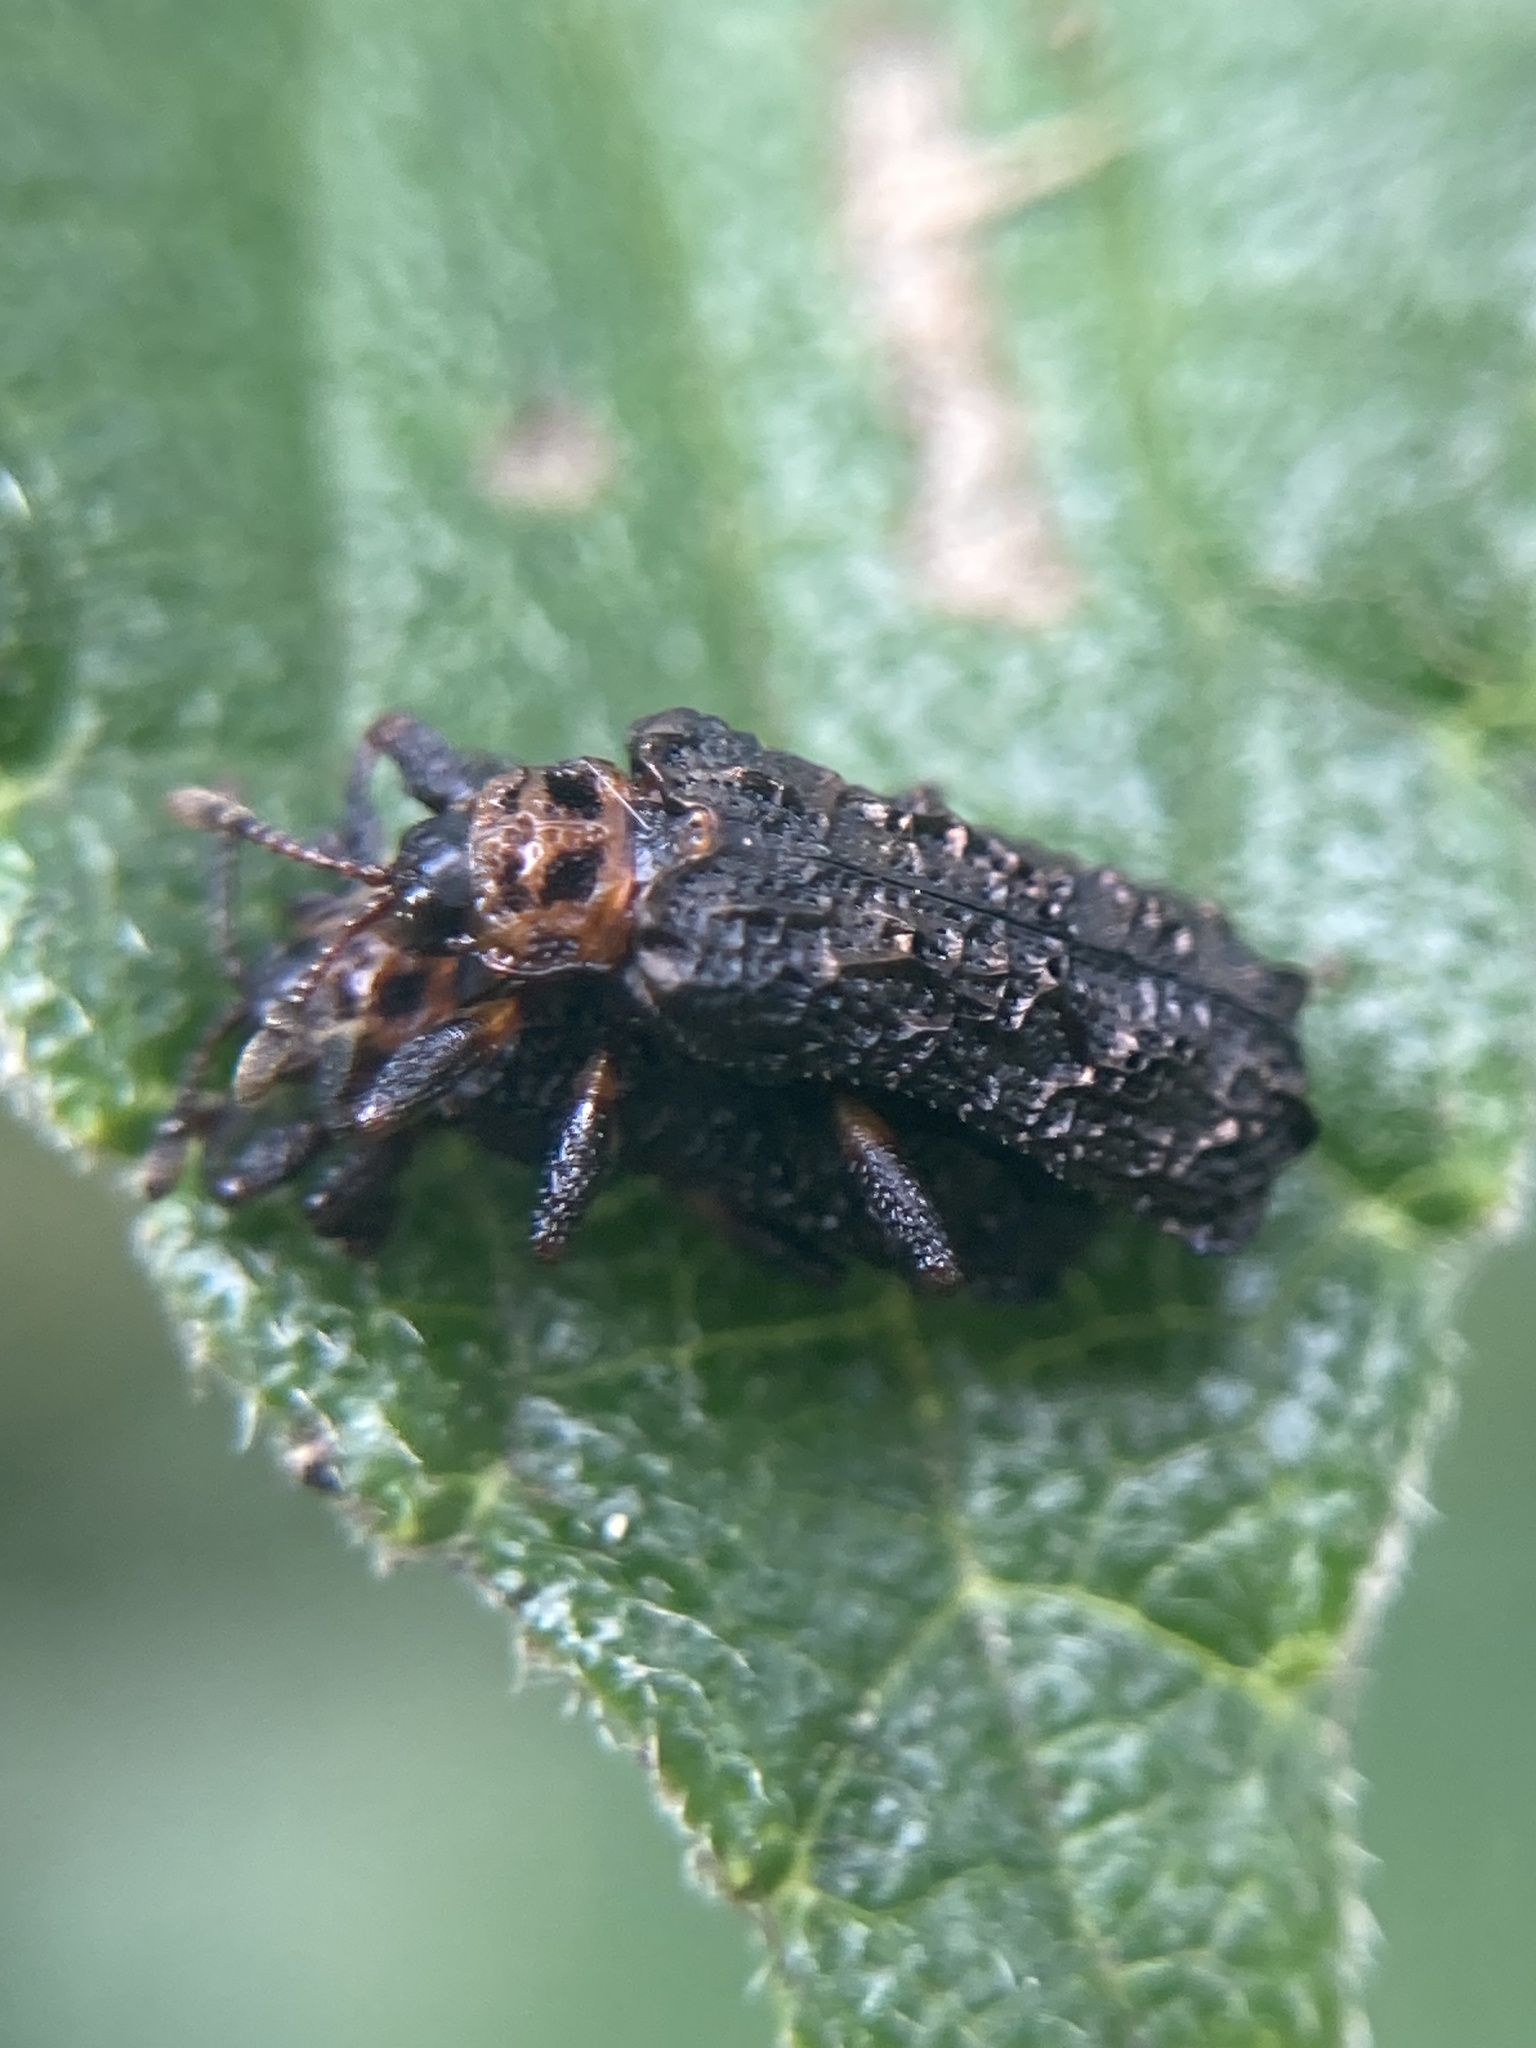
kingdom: Animalia
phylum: Arthropoda
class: Insecta
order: Coleoptera
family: Chrysomelidae
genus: Octotoma
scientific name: Octotoma scabripennis
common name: Beetle
